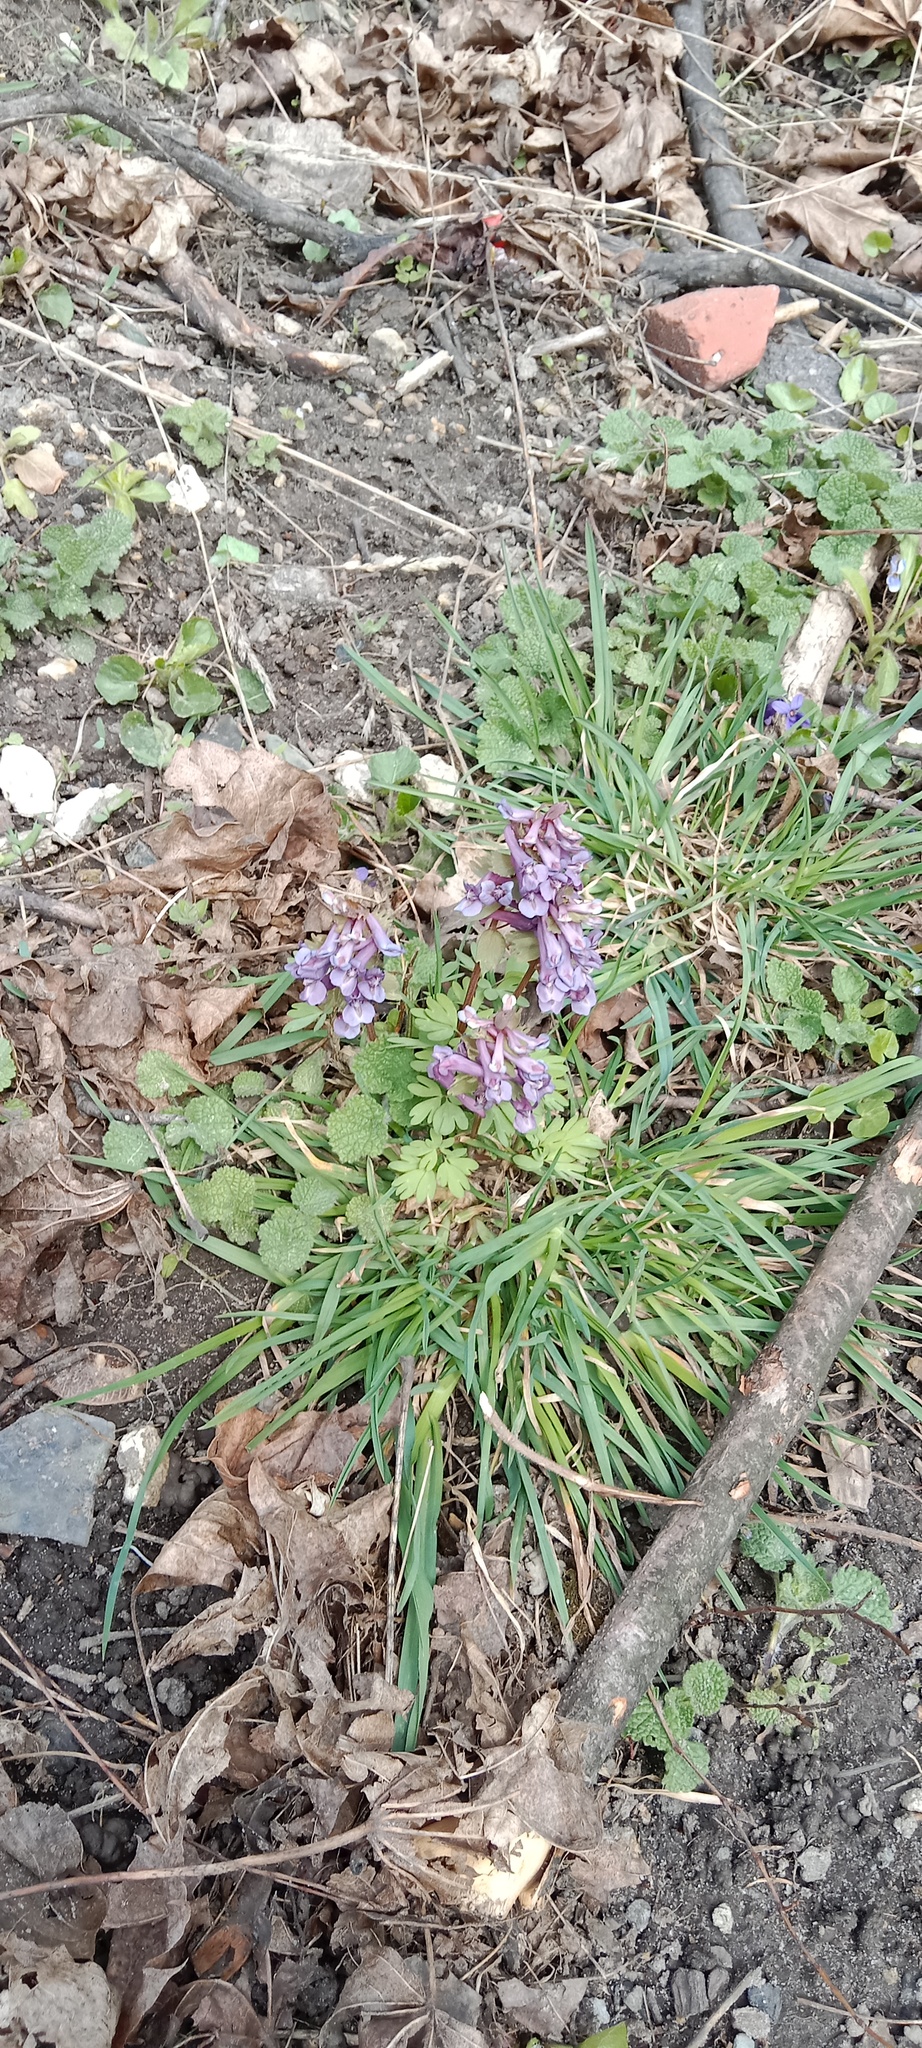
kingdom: Plantae
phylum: Tracheophyta
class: Magnoliopsida
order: Ranunculales
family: Papaveraceae
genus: Corydalis
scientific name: Corydalis solida
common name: Bird-in-a-bush
